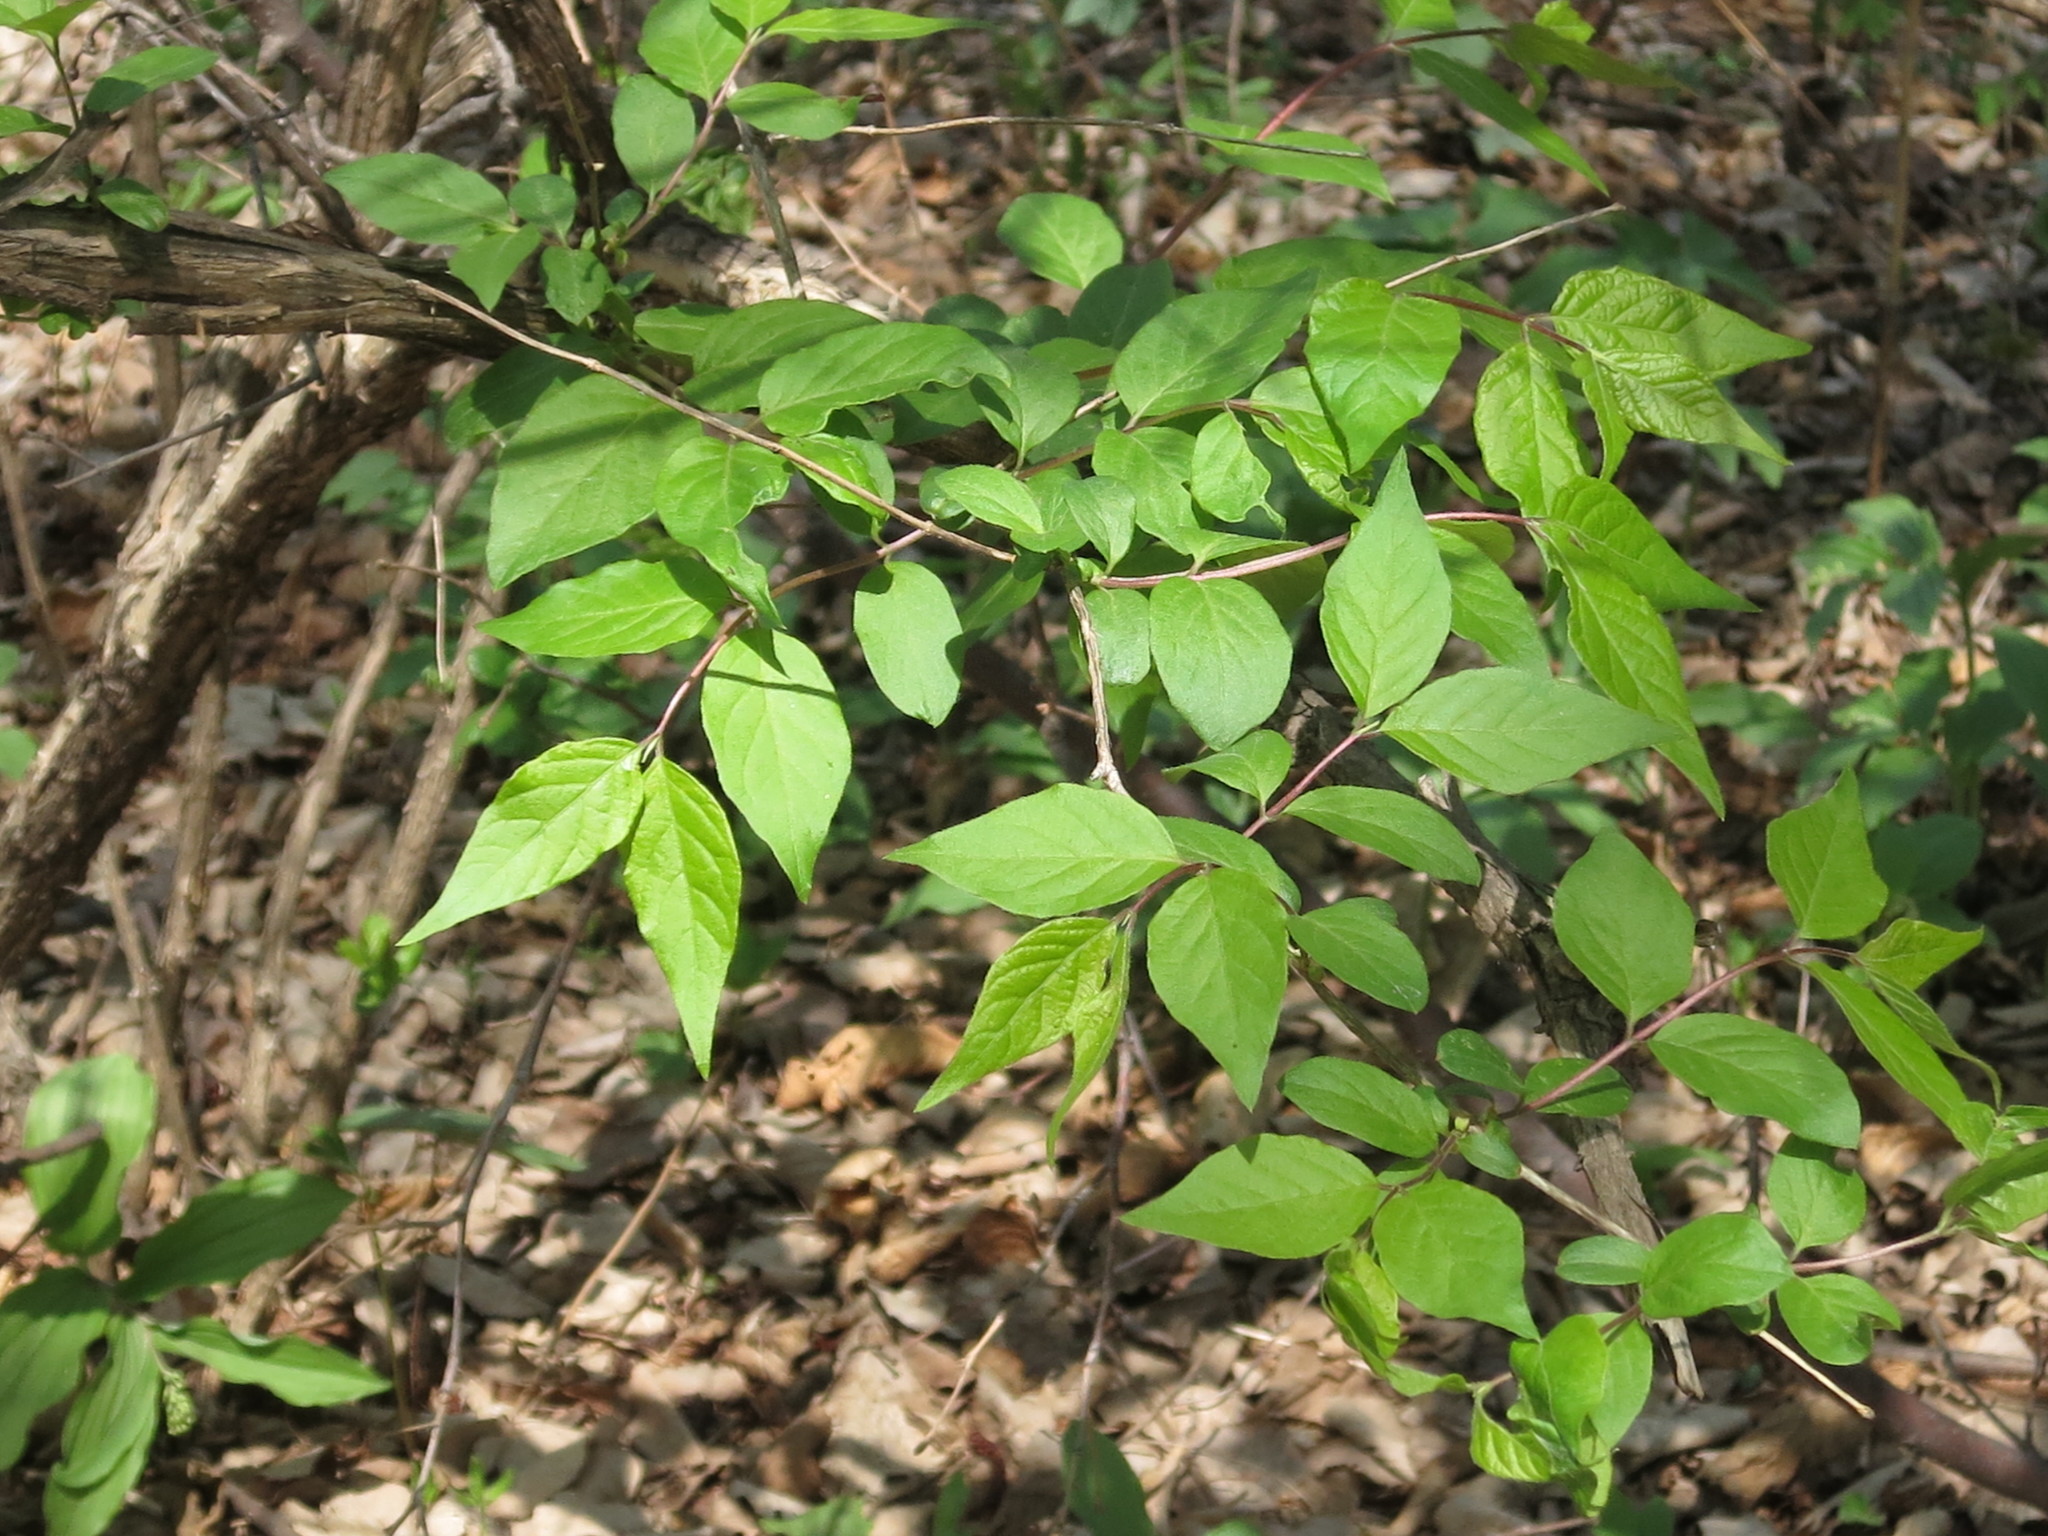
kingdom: Plantae
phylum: Tracheophyta
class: Magnoliopsida
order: Dipsacales
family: Caprifoliaceae
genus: Lonicera
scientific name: Lonicera maackii
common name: Amur honeysuckle
